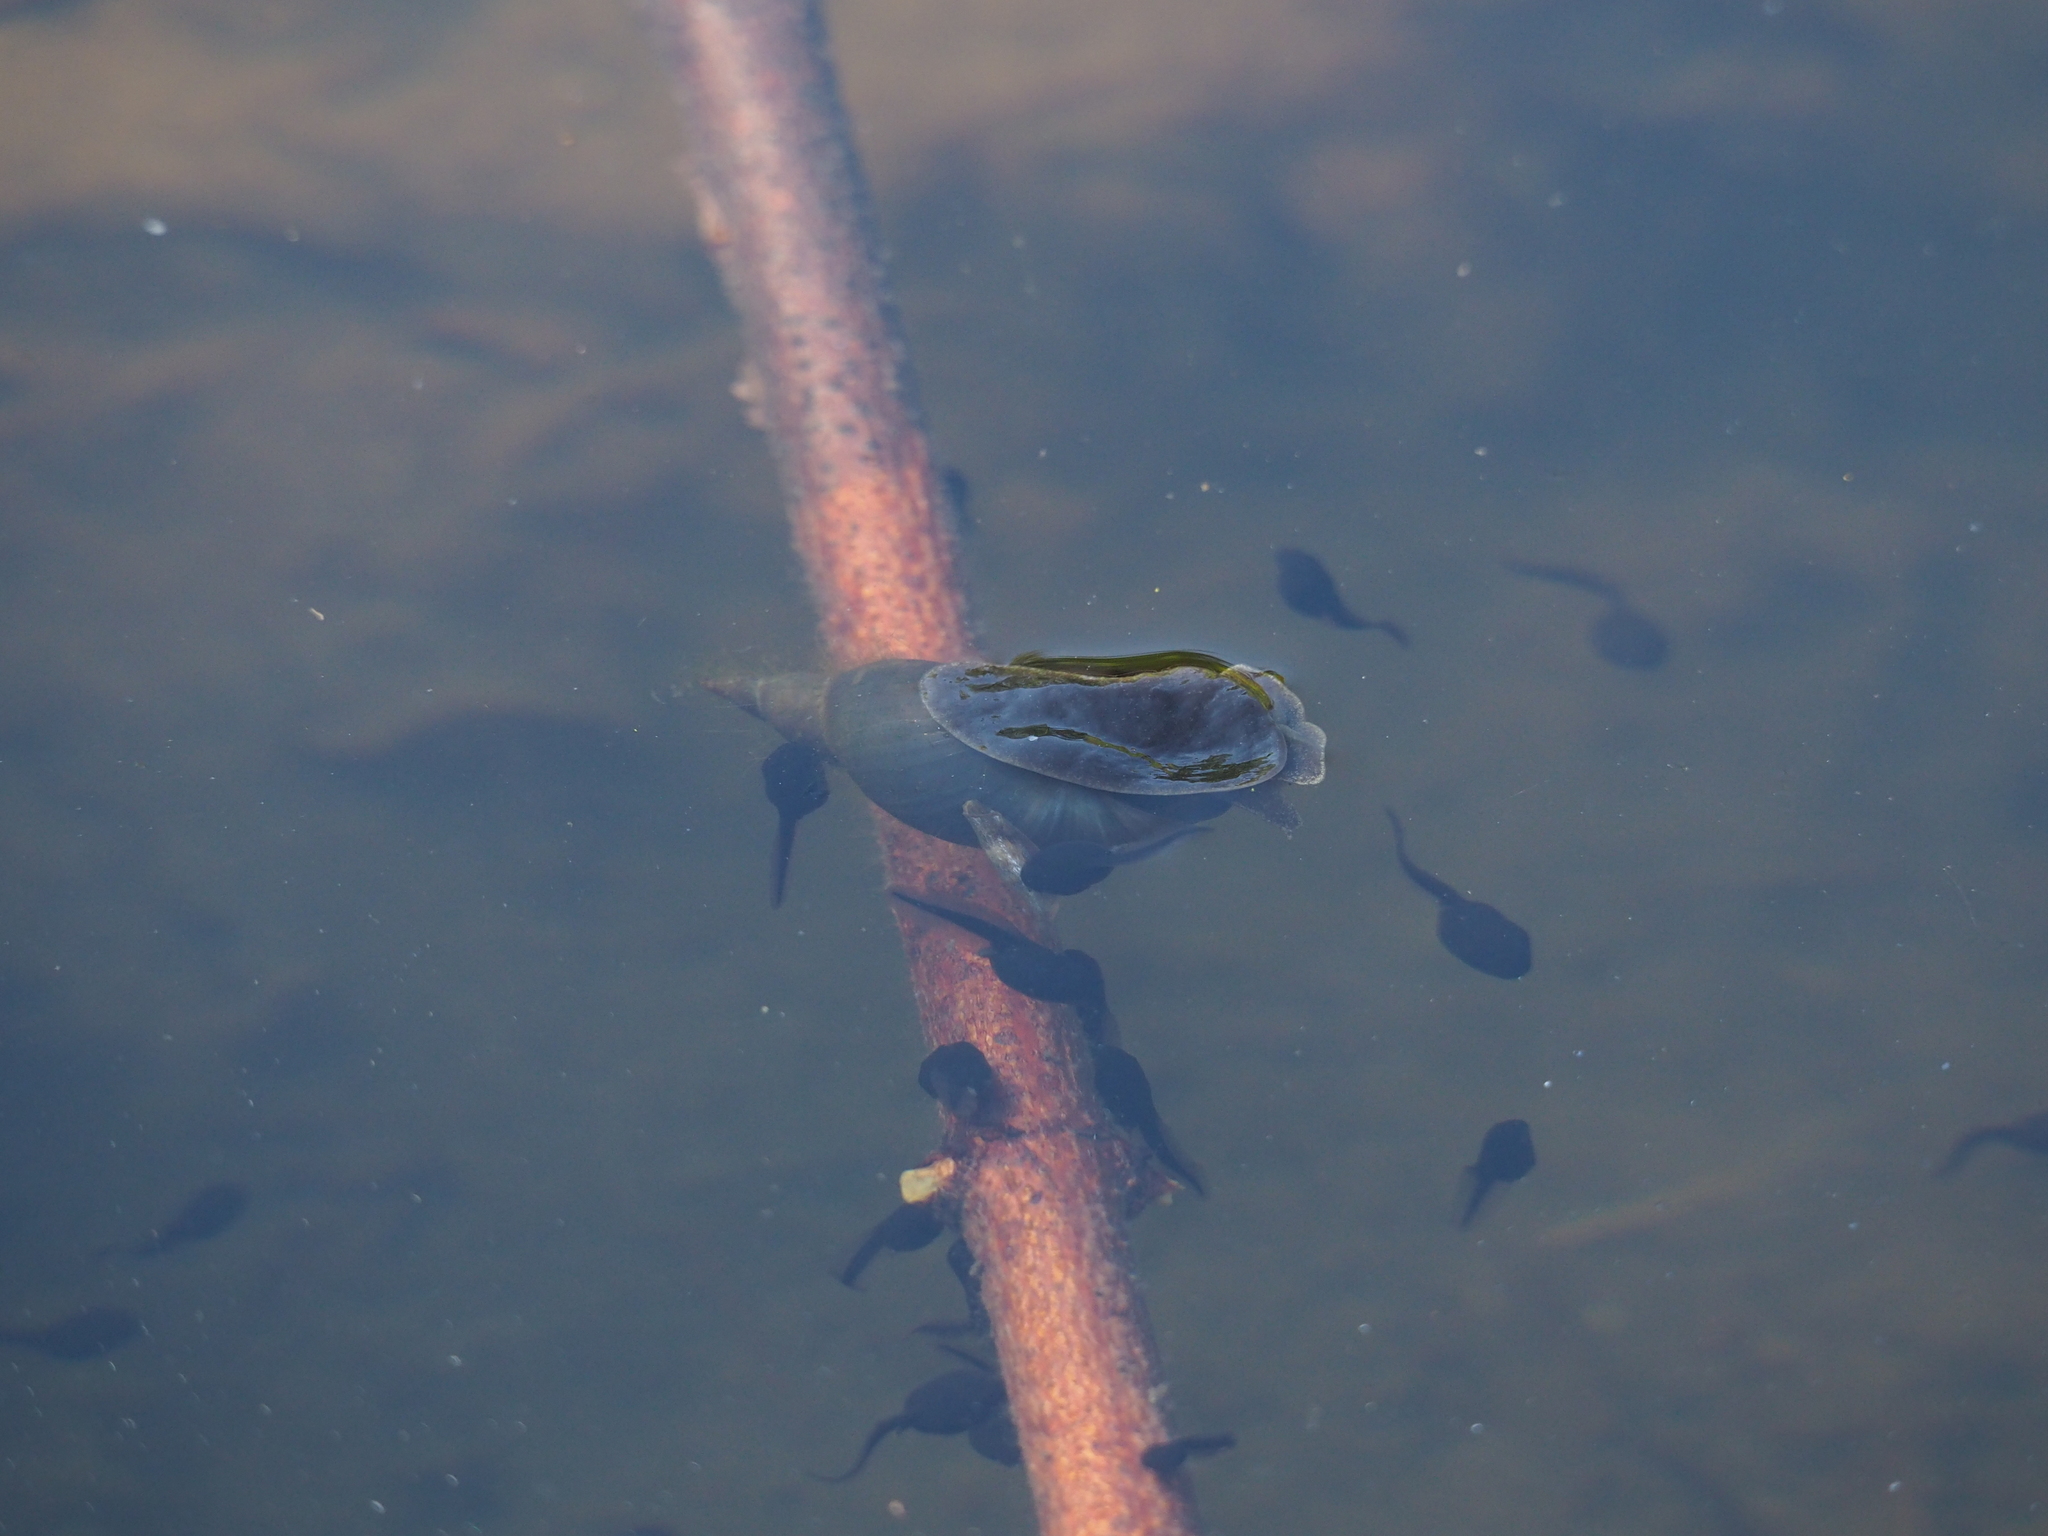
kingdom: Animalia
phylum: Mollusca
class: Gastropoda
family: Lymnaeidae
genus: Lymnaea
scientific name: Lymnaea stagnalis
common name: Great pond snail
